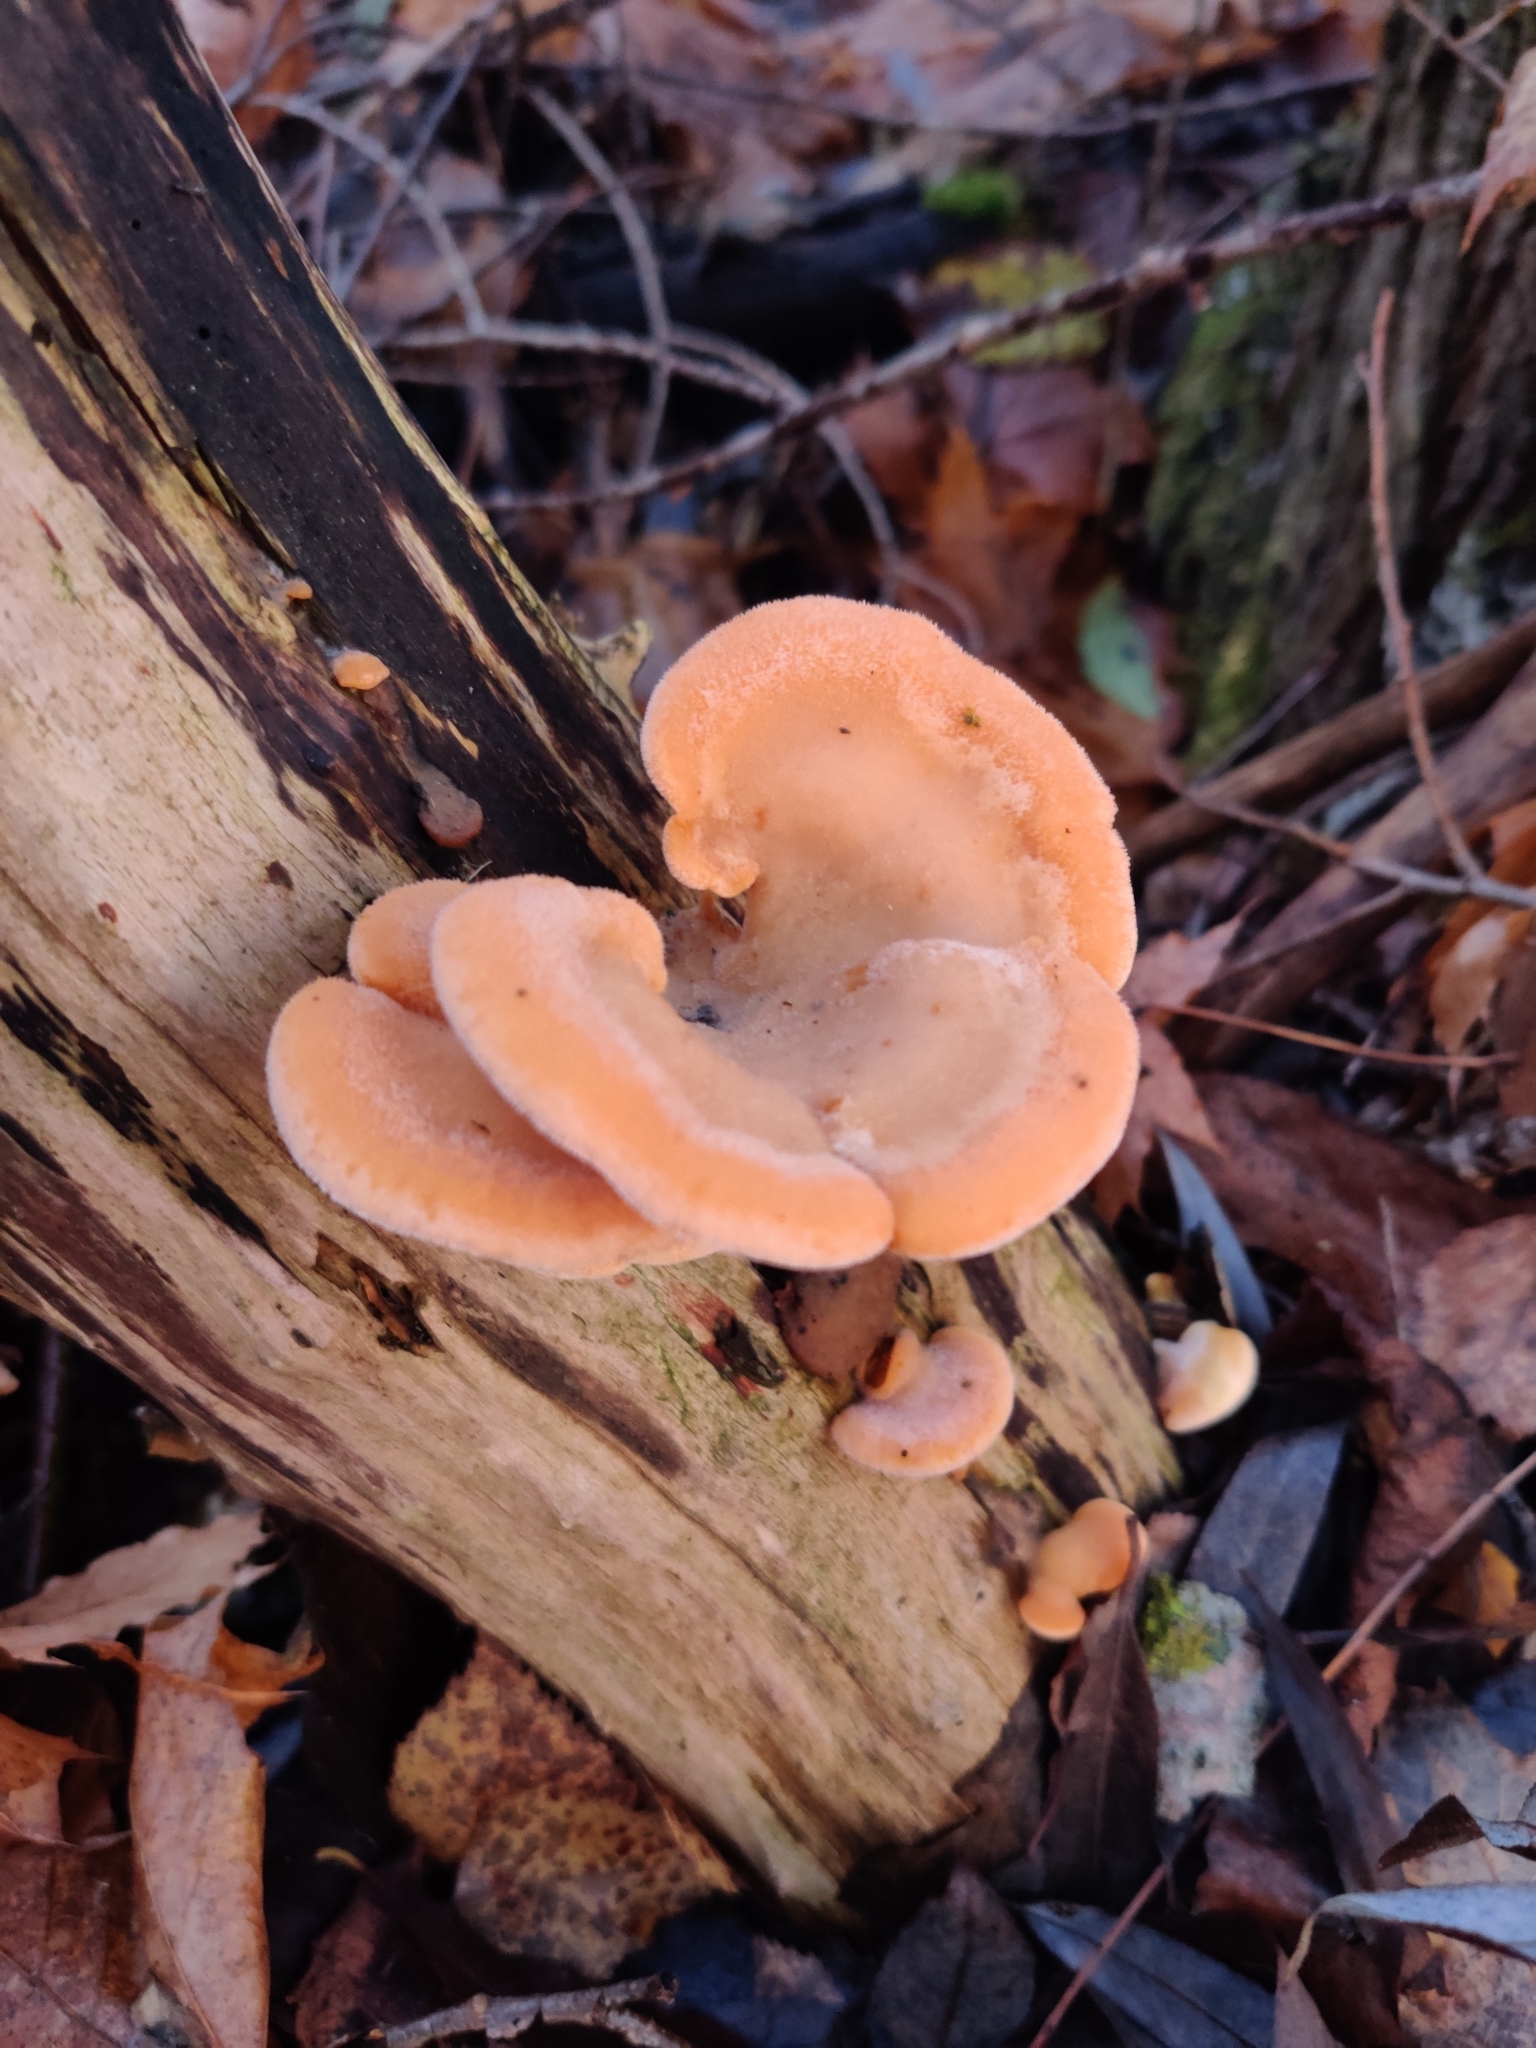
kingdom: Fungi
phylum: Basidiomycota
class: Agaricomycetes
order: Agaricales
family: Phyllotopsidaceae
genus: Phyllotopsis
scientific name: Phyllotopsis nidulans
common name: Orange mock oyster
